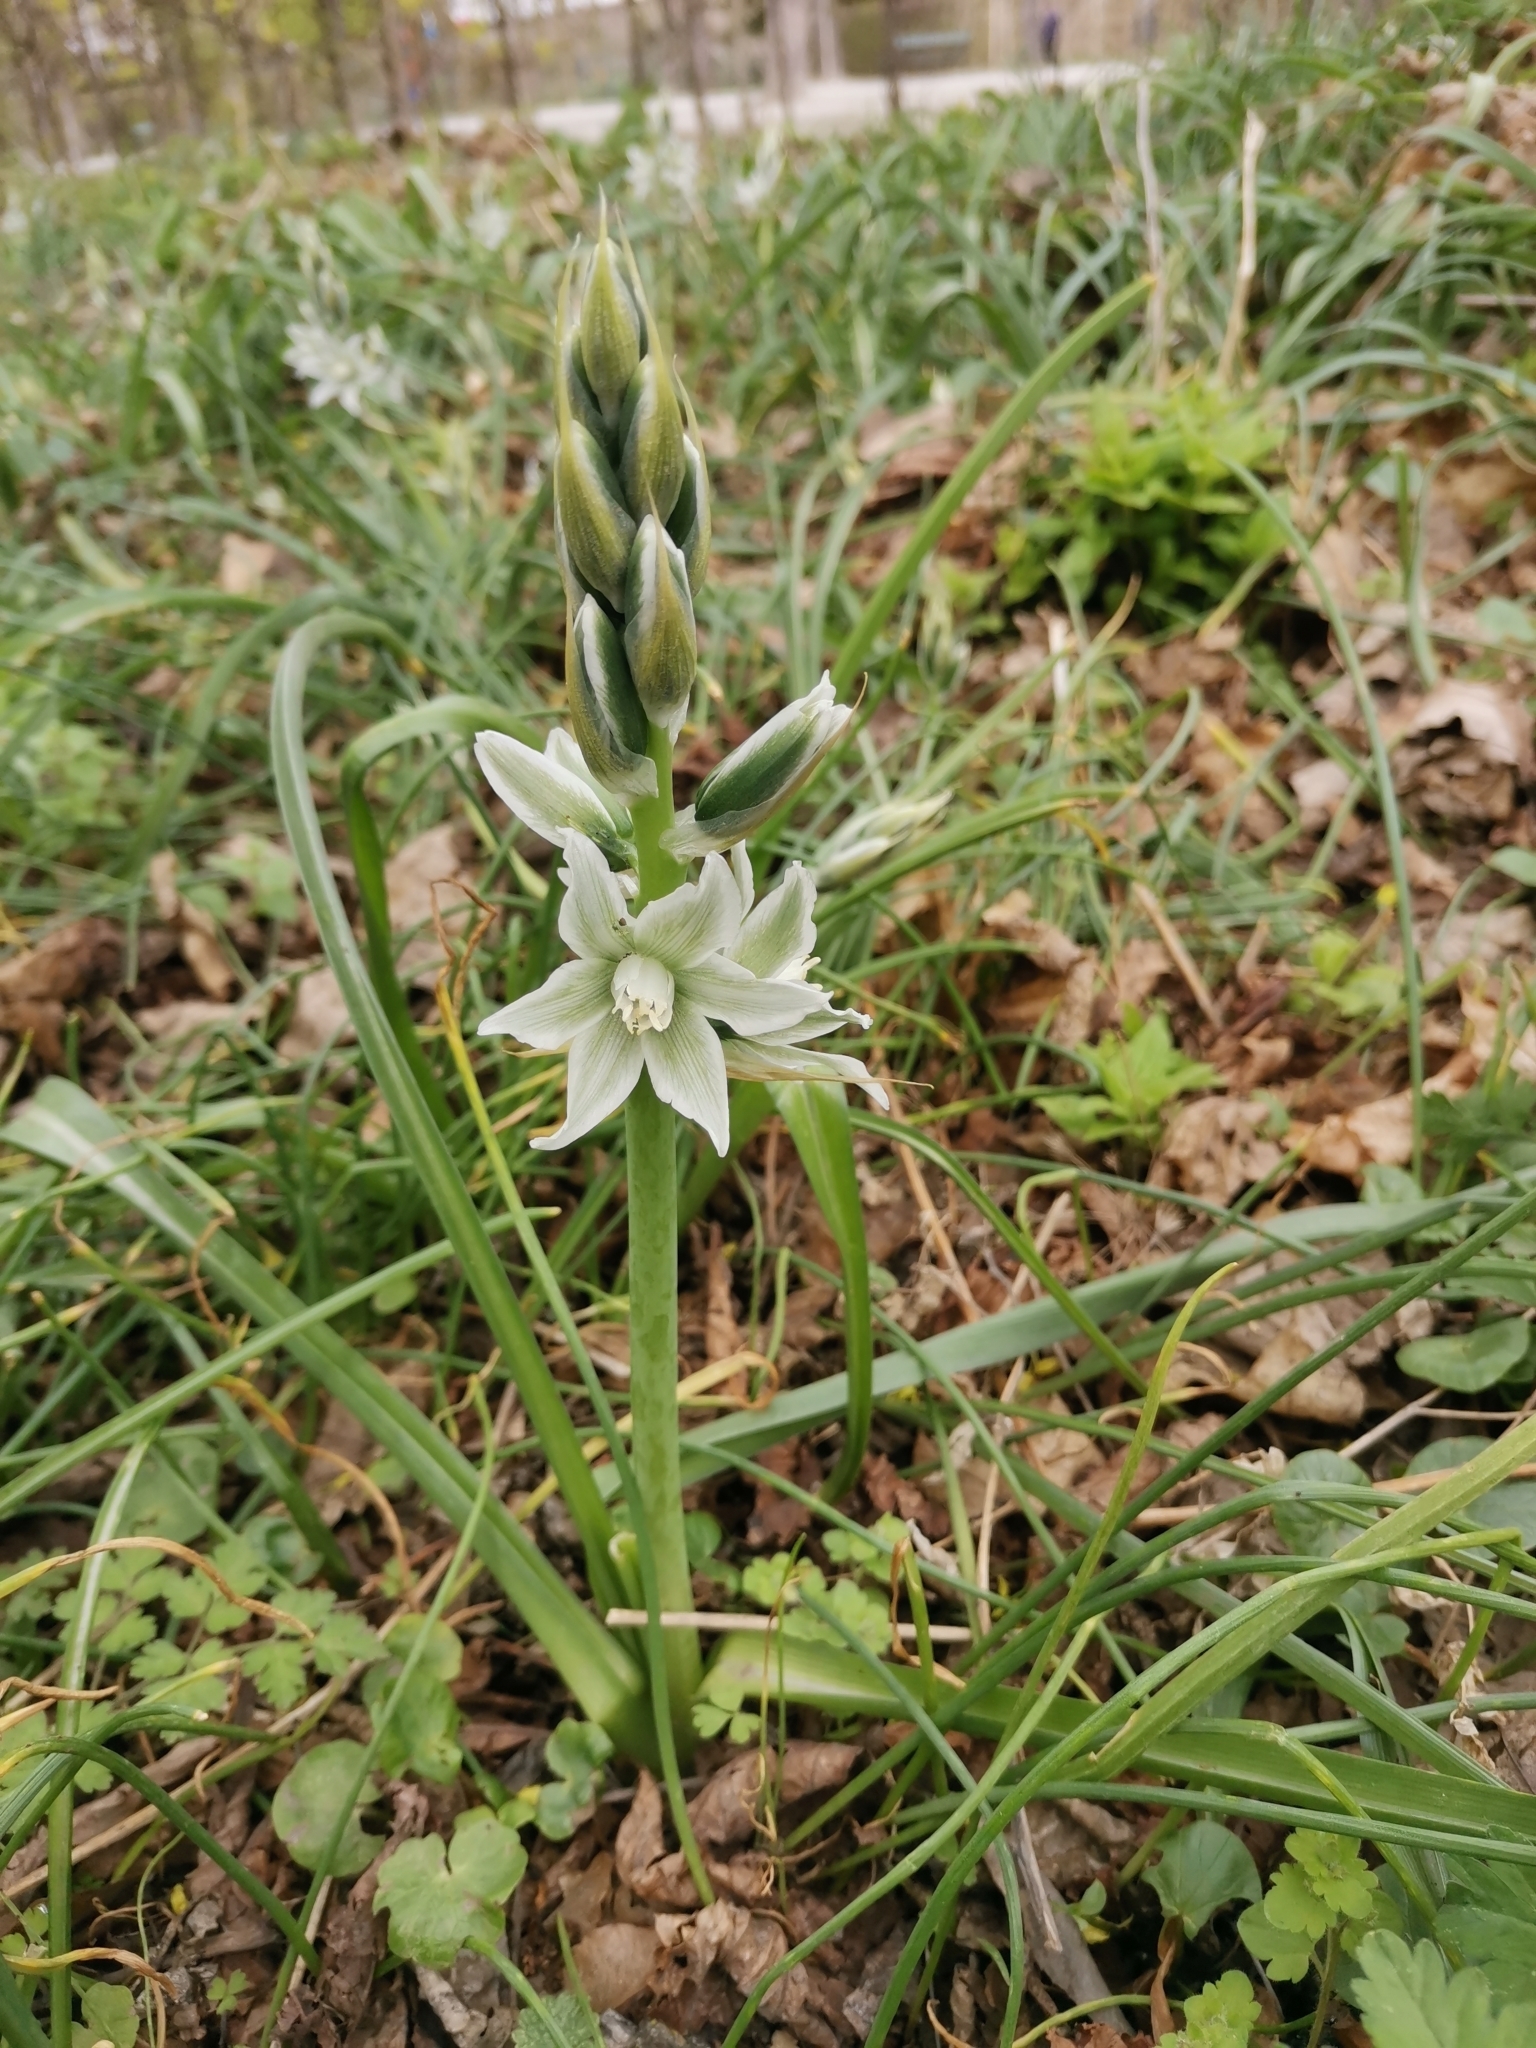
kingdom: Plantae
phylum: Tracheophyta
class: Liliopsida
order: Asparagales
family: Asparagaceae
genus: Ornithogalum
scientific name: Ornithogalum nutans
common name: Drooping star-of-bethlehem
